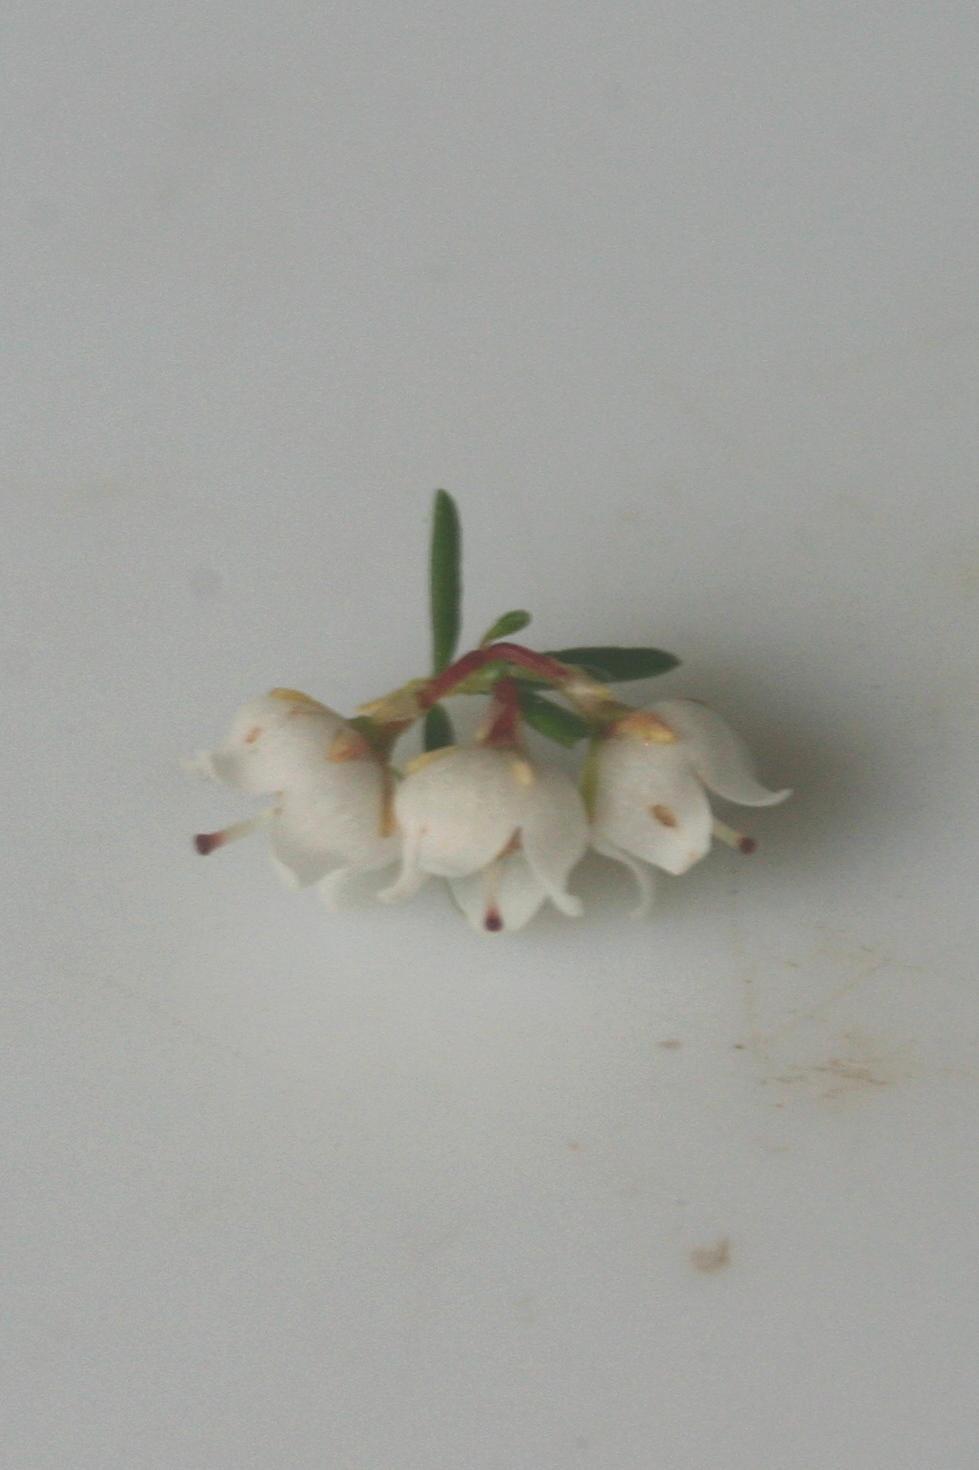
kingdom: Plantae
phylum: Tracheophyta
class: Magnoliopsida
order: Ericales
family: Ericaceae
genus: Erica
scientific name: Erica tenuis
